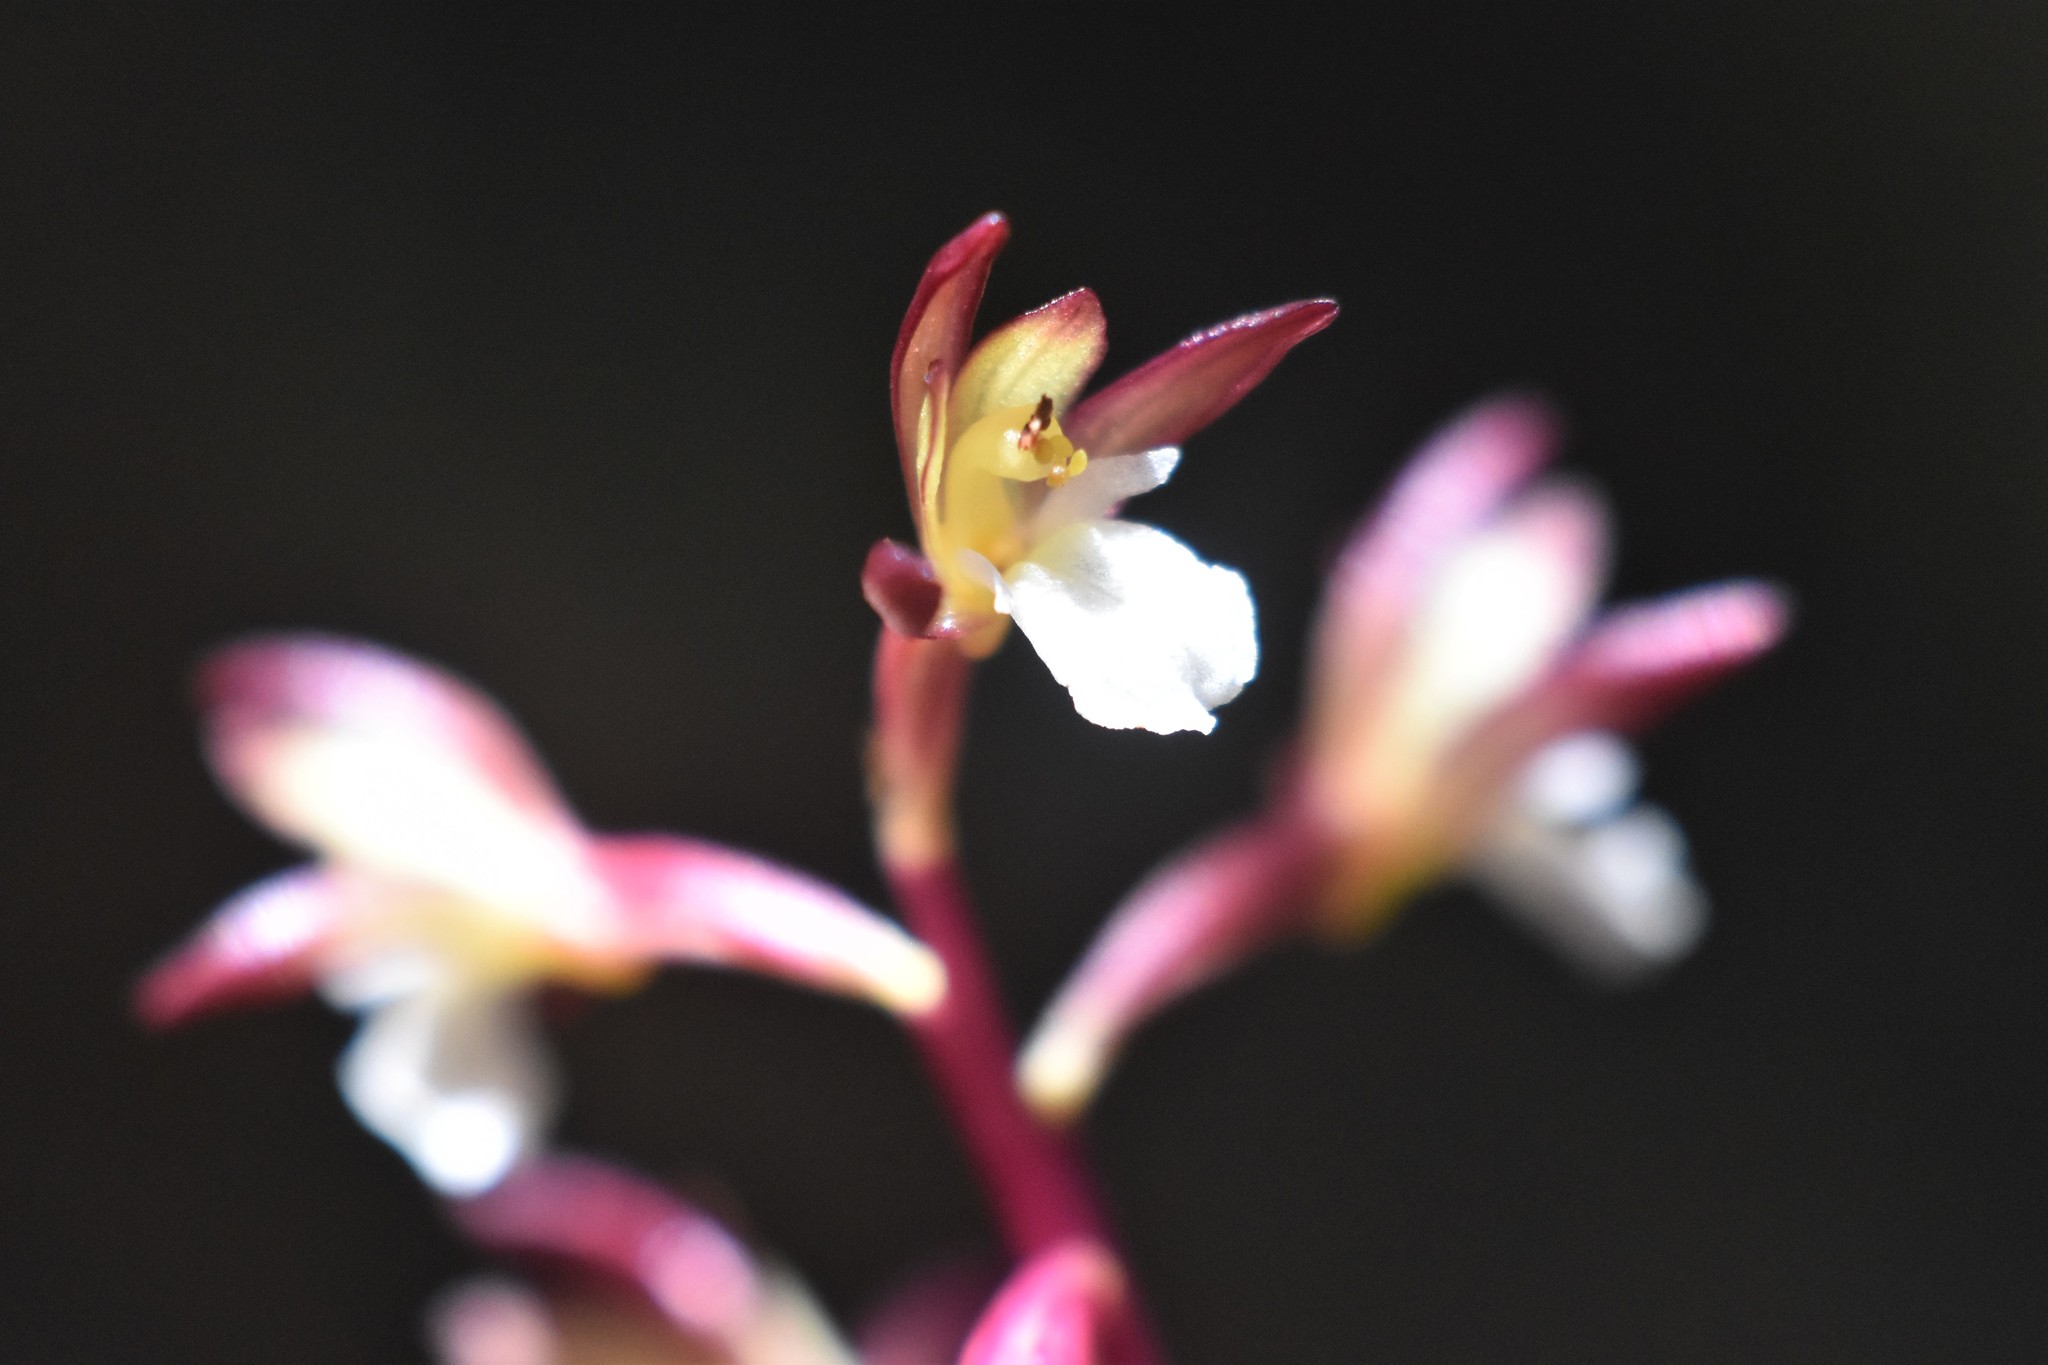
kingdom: Plantae
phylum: Tracheophyta
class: Liliopsida
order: Asparagales
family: Orchidaceae
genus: Corallorhiza
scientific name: Corallorhiza maculata
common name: Spotted coralroot
